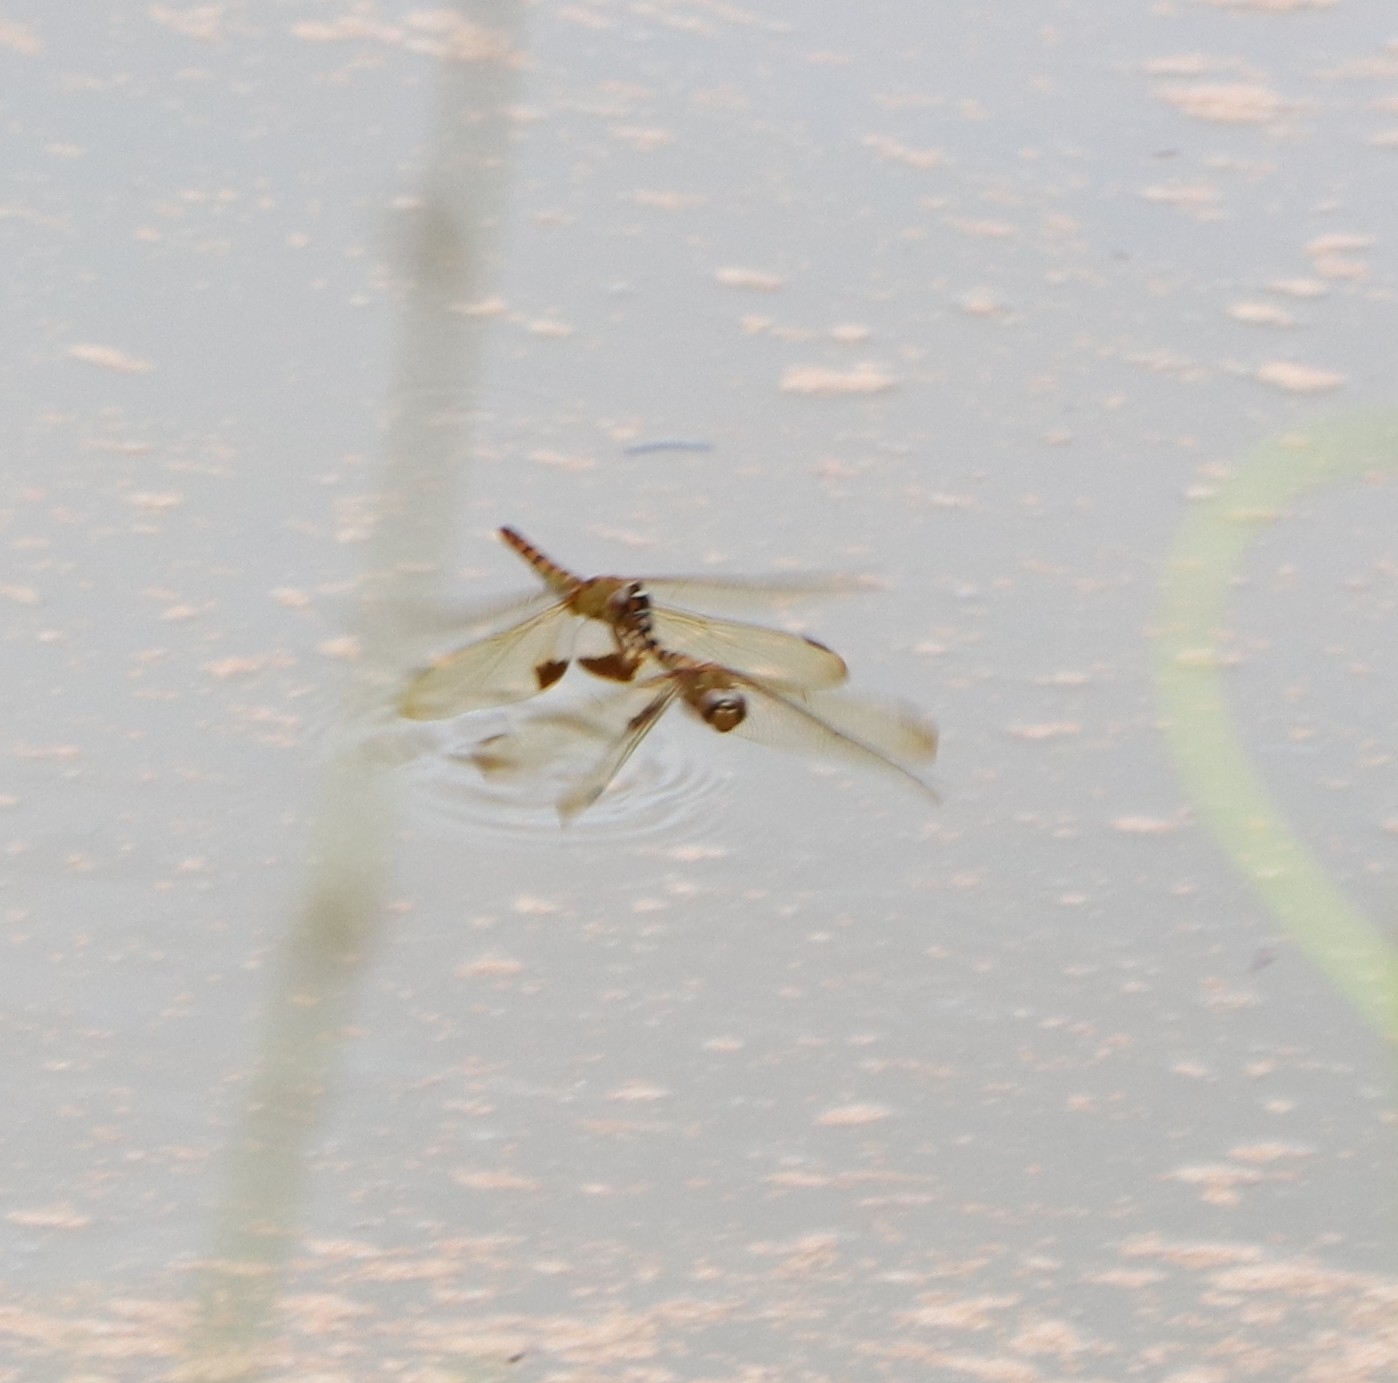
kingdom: Animalia
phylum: Arthropoda
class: Insecta
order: Odonata
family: Libellulidae
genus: Hydrobasileus
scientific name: Hydrobasileus croceus
